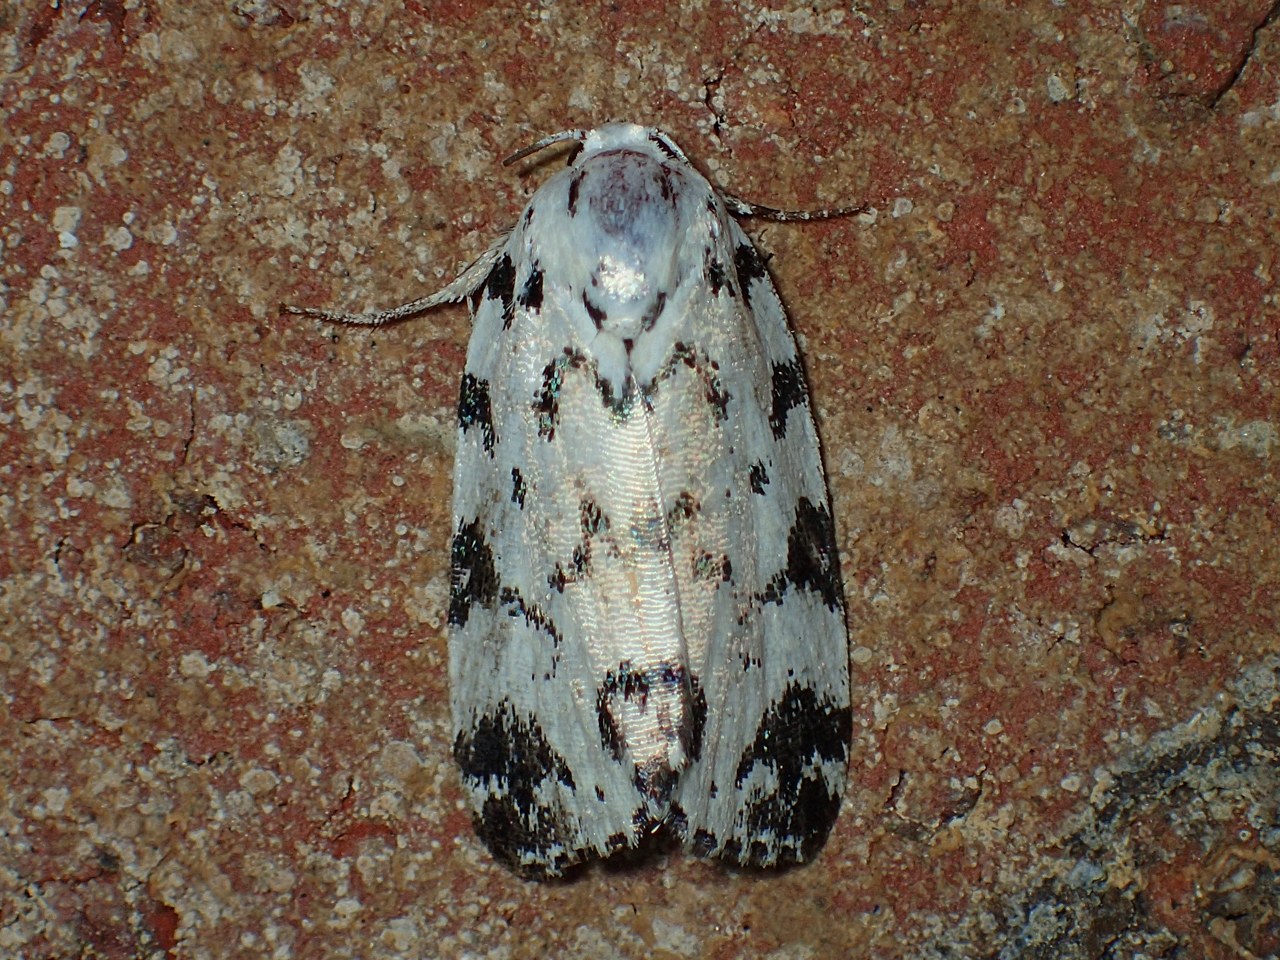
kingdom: Animalia
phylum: Arthropoda
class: Insecta
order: Lepidoptera
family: Noctuidae
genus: Polygrammate
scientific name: Polygrammate hebraeicum
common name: Hebrew moth
